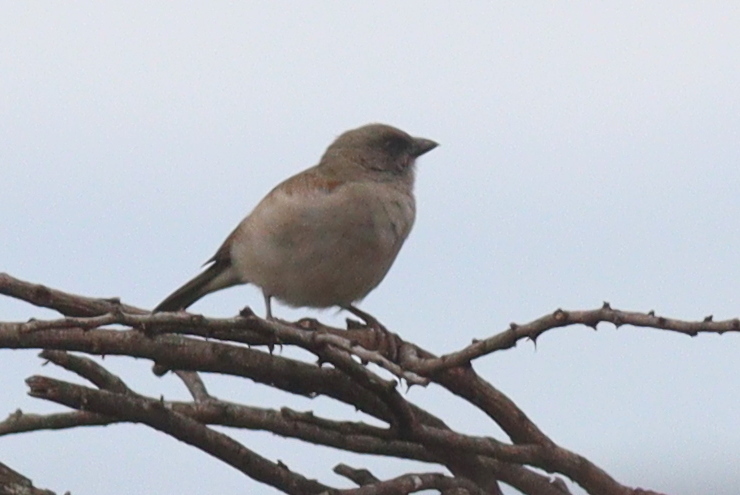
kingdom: Animalia
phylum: Chordata
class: Aves
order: Passeriformes
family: Passeridae
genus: Passer
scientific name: Passer griseus
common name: Northern grey-headed sparrow
